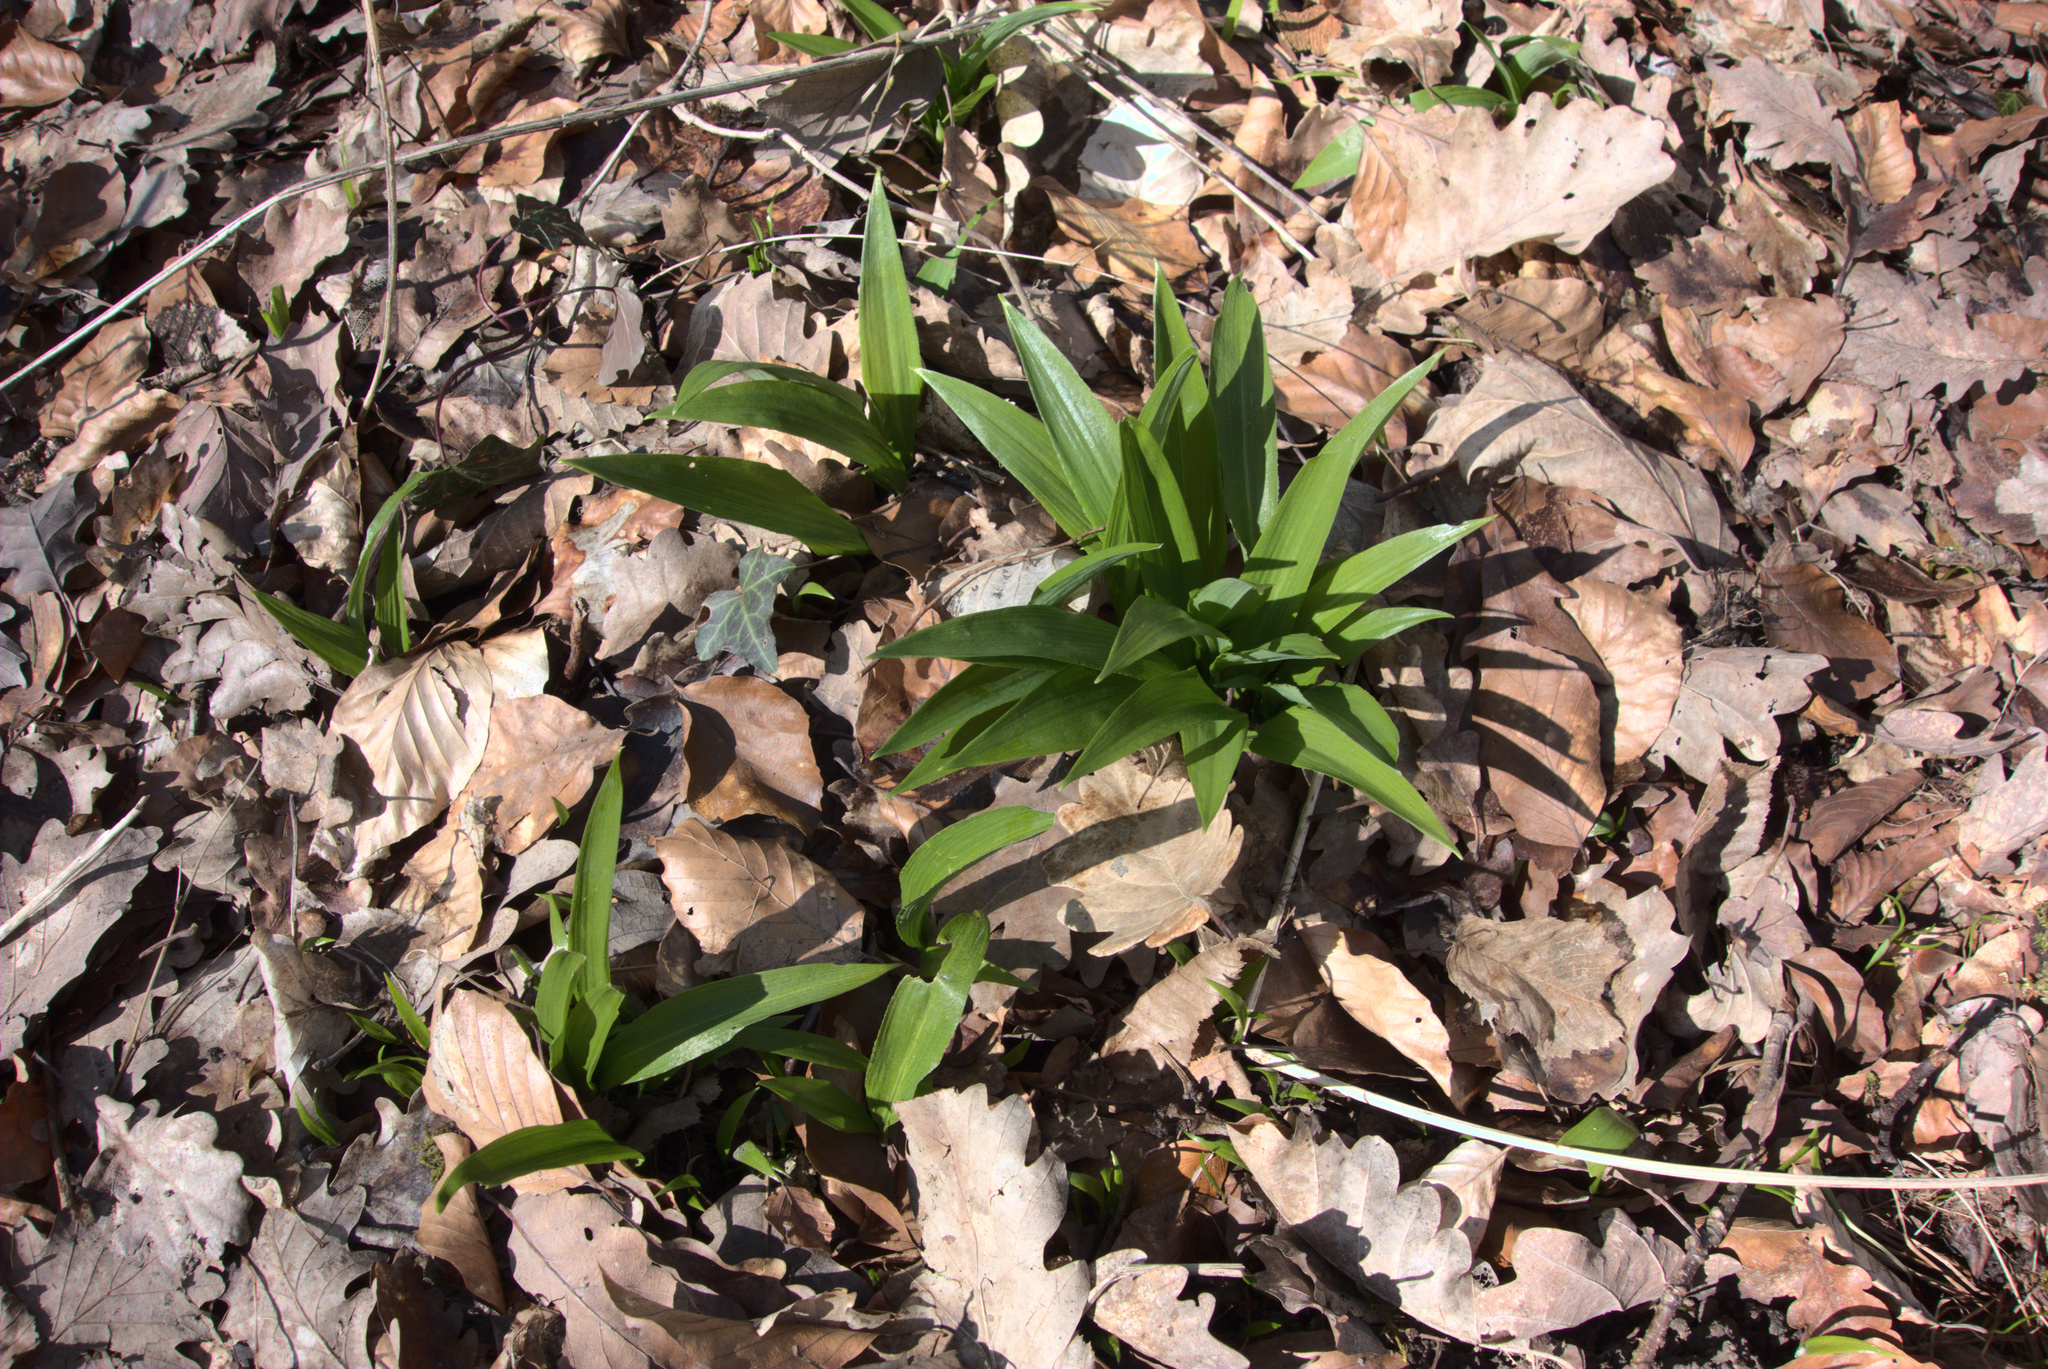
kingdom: Plantae
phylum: Tracheophyta
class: Liliopsida
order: Asparagales
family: Amaryllidaceae
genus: Allium
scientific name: Allium ursinum
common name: Ramsons
